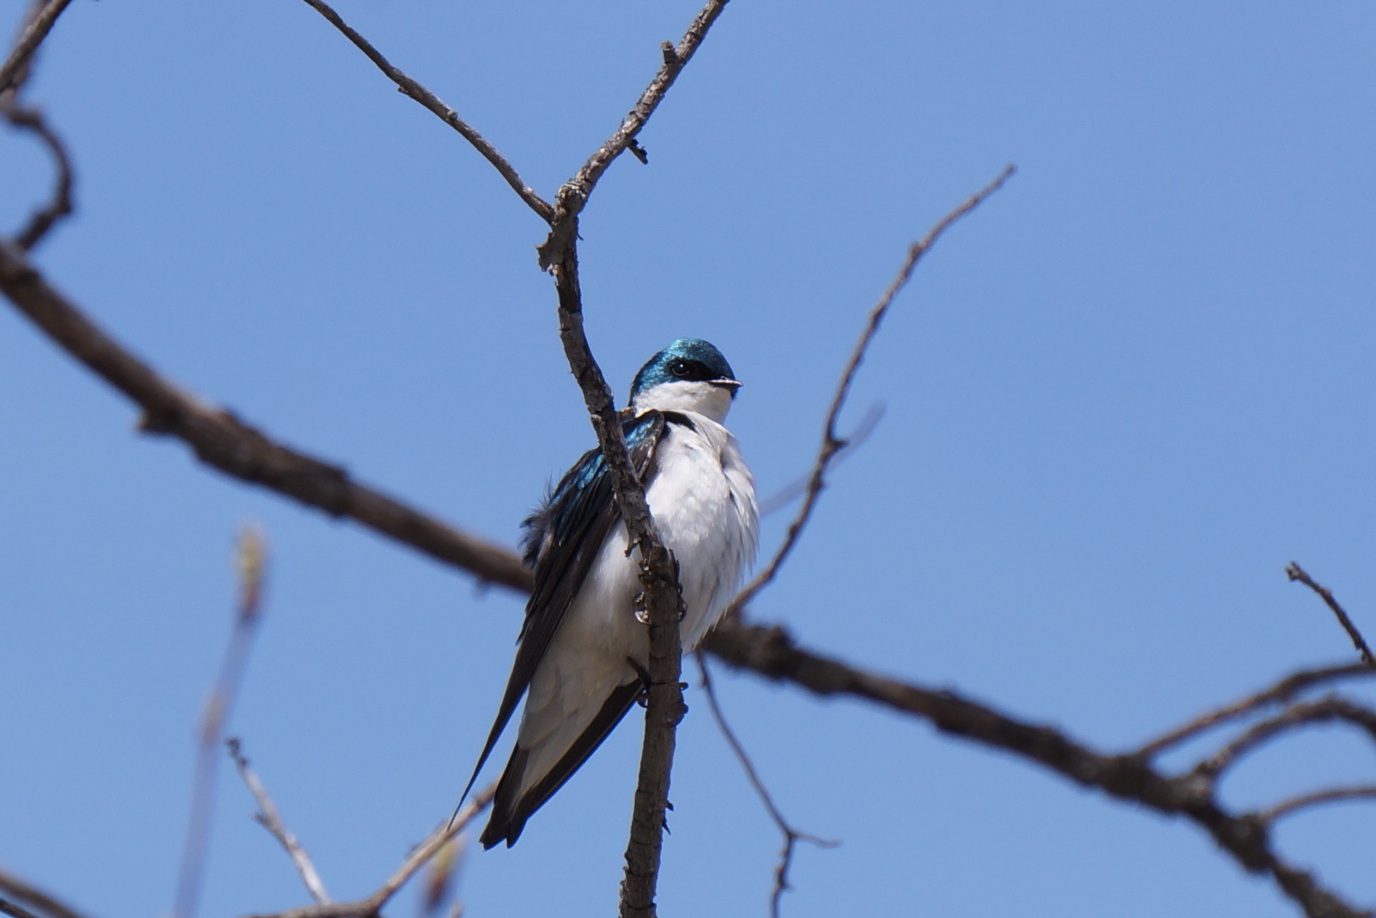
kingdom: Animalia
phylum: Chordata
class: Aves
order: Passeriformes
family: Hirundinidae
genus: Tachycineta
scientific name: Tachycineta bicolor
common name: Tree swallow
